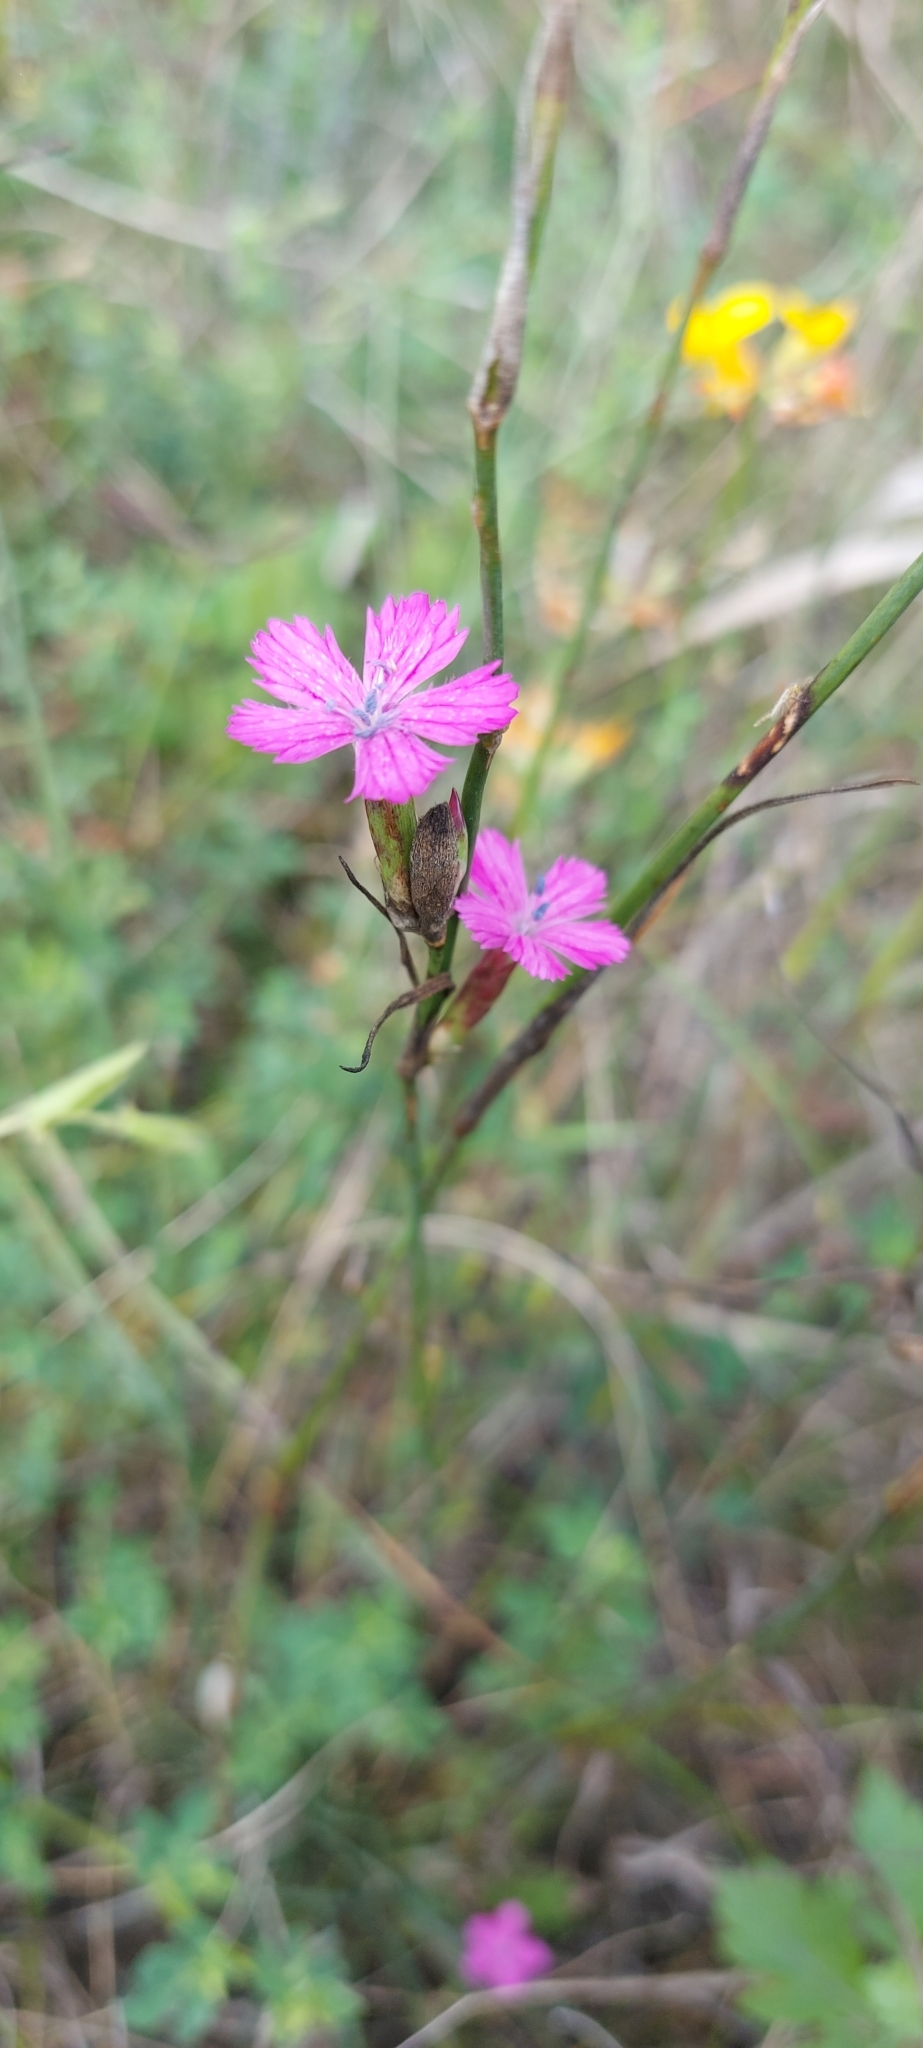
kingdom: Plantae
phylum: Tracheophyta
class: Magnoliopsida
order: Caryophyllales
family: Caryophyllaceae
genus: Dianthus
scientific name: Dianthus borbasii
